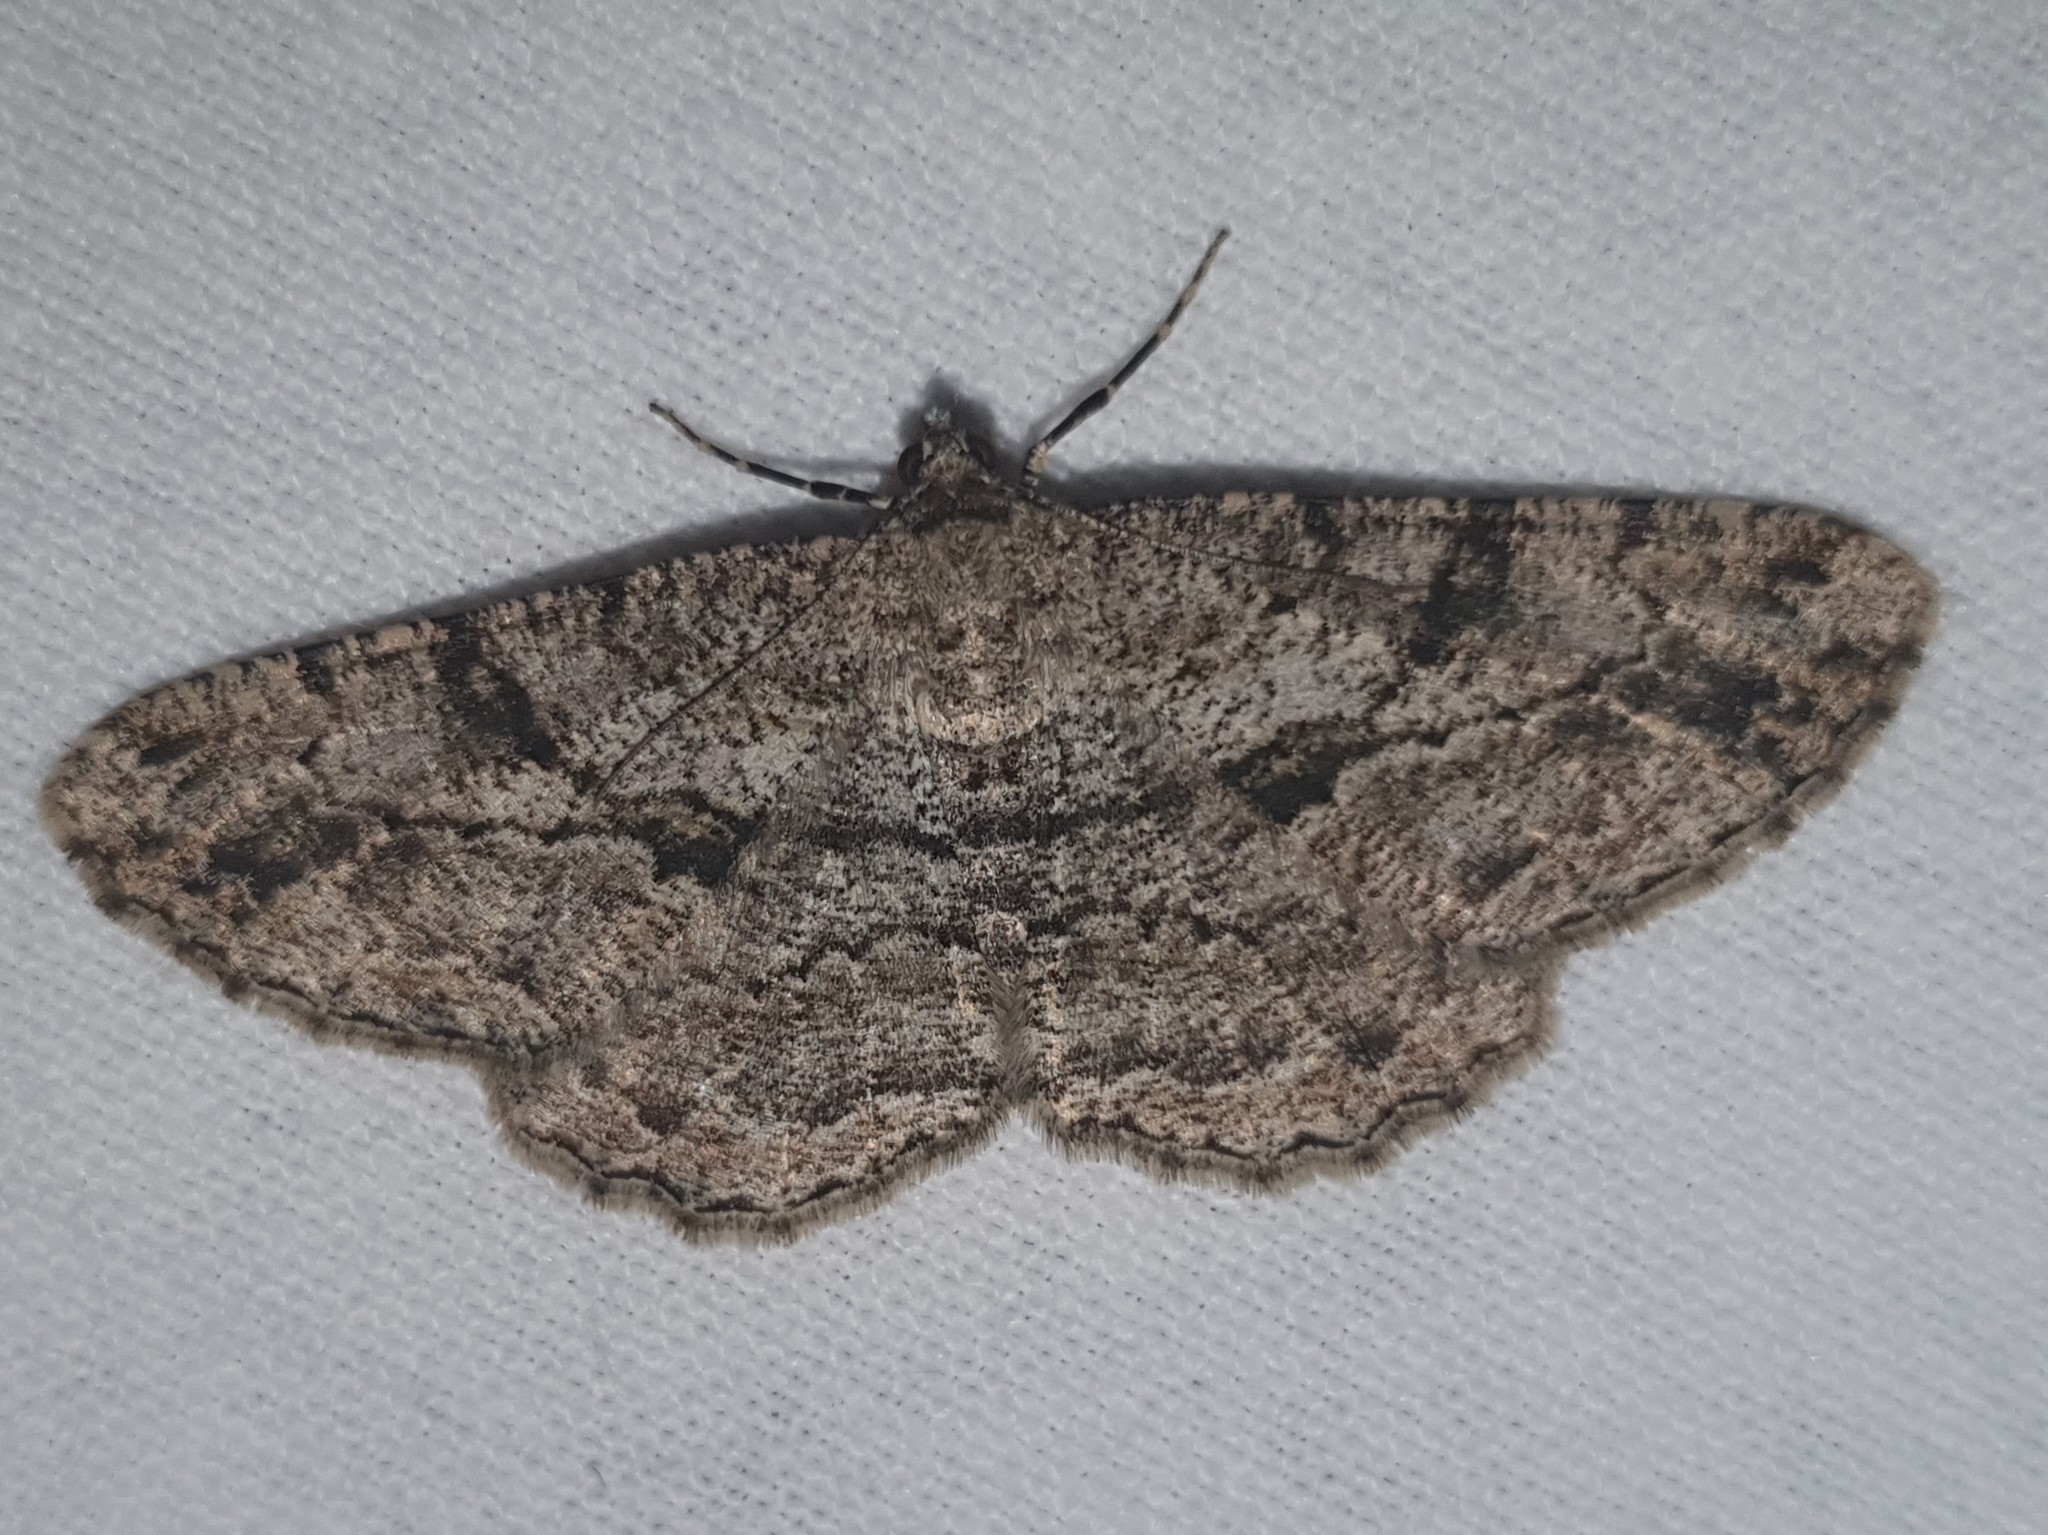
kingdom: Animalia
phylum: Arthropoda
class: Insecta
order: Lepidoptera
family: Geometridae
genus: Peribatodes
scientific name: Peribatodes rhomboidaria
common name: Willow beauty
